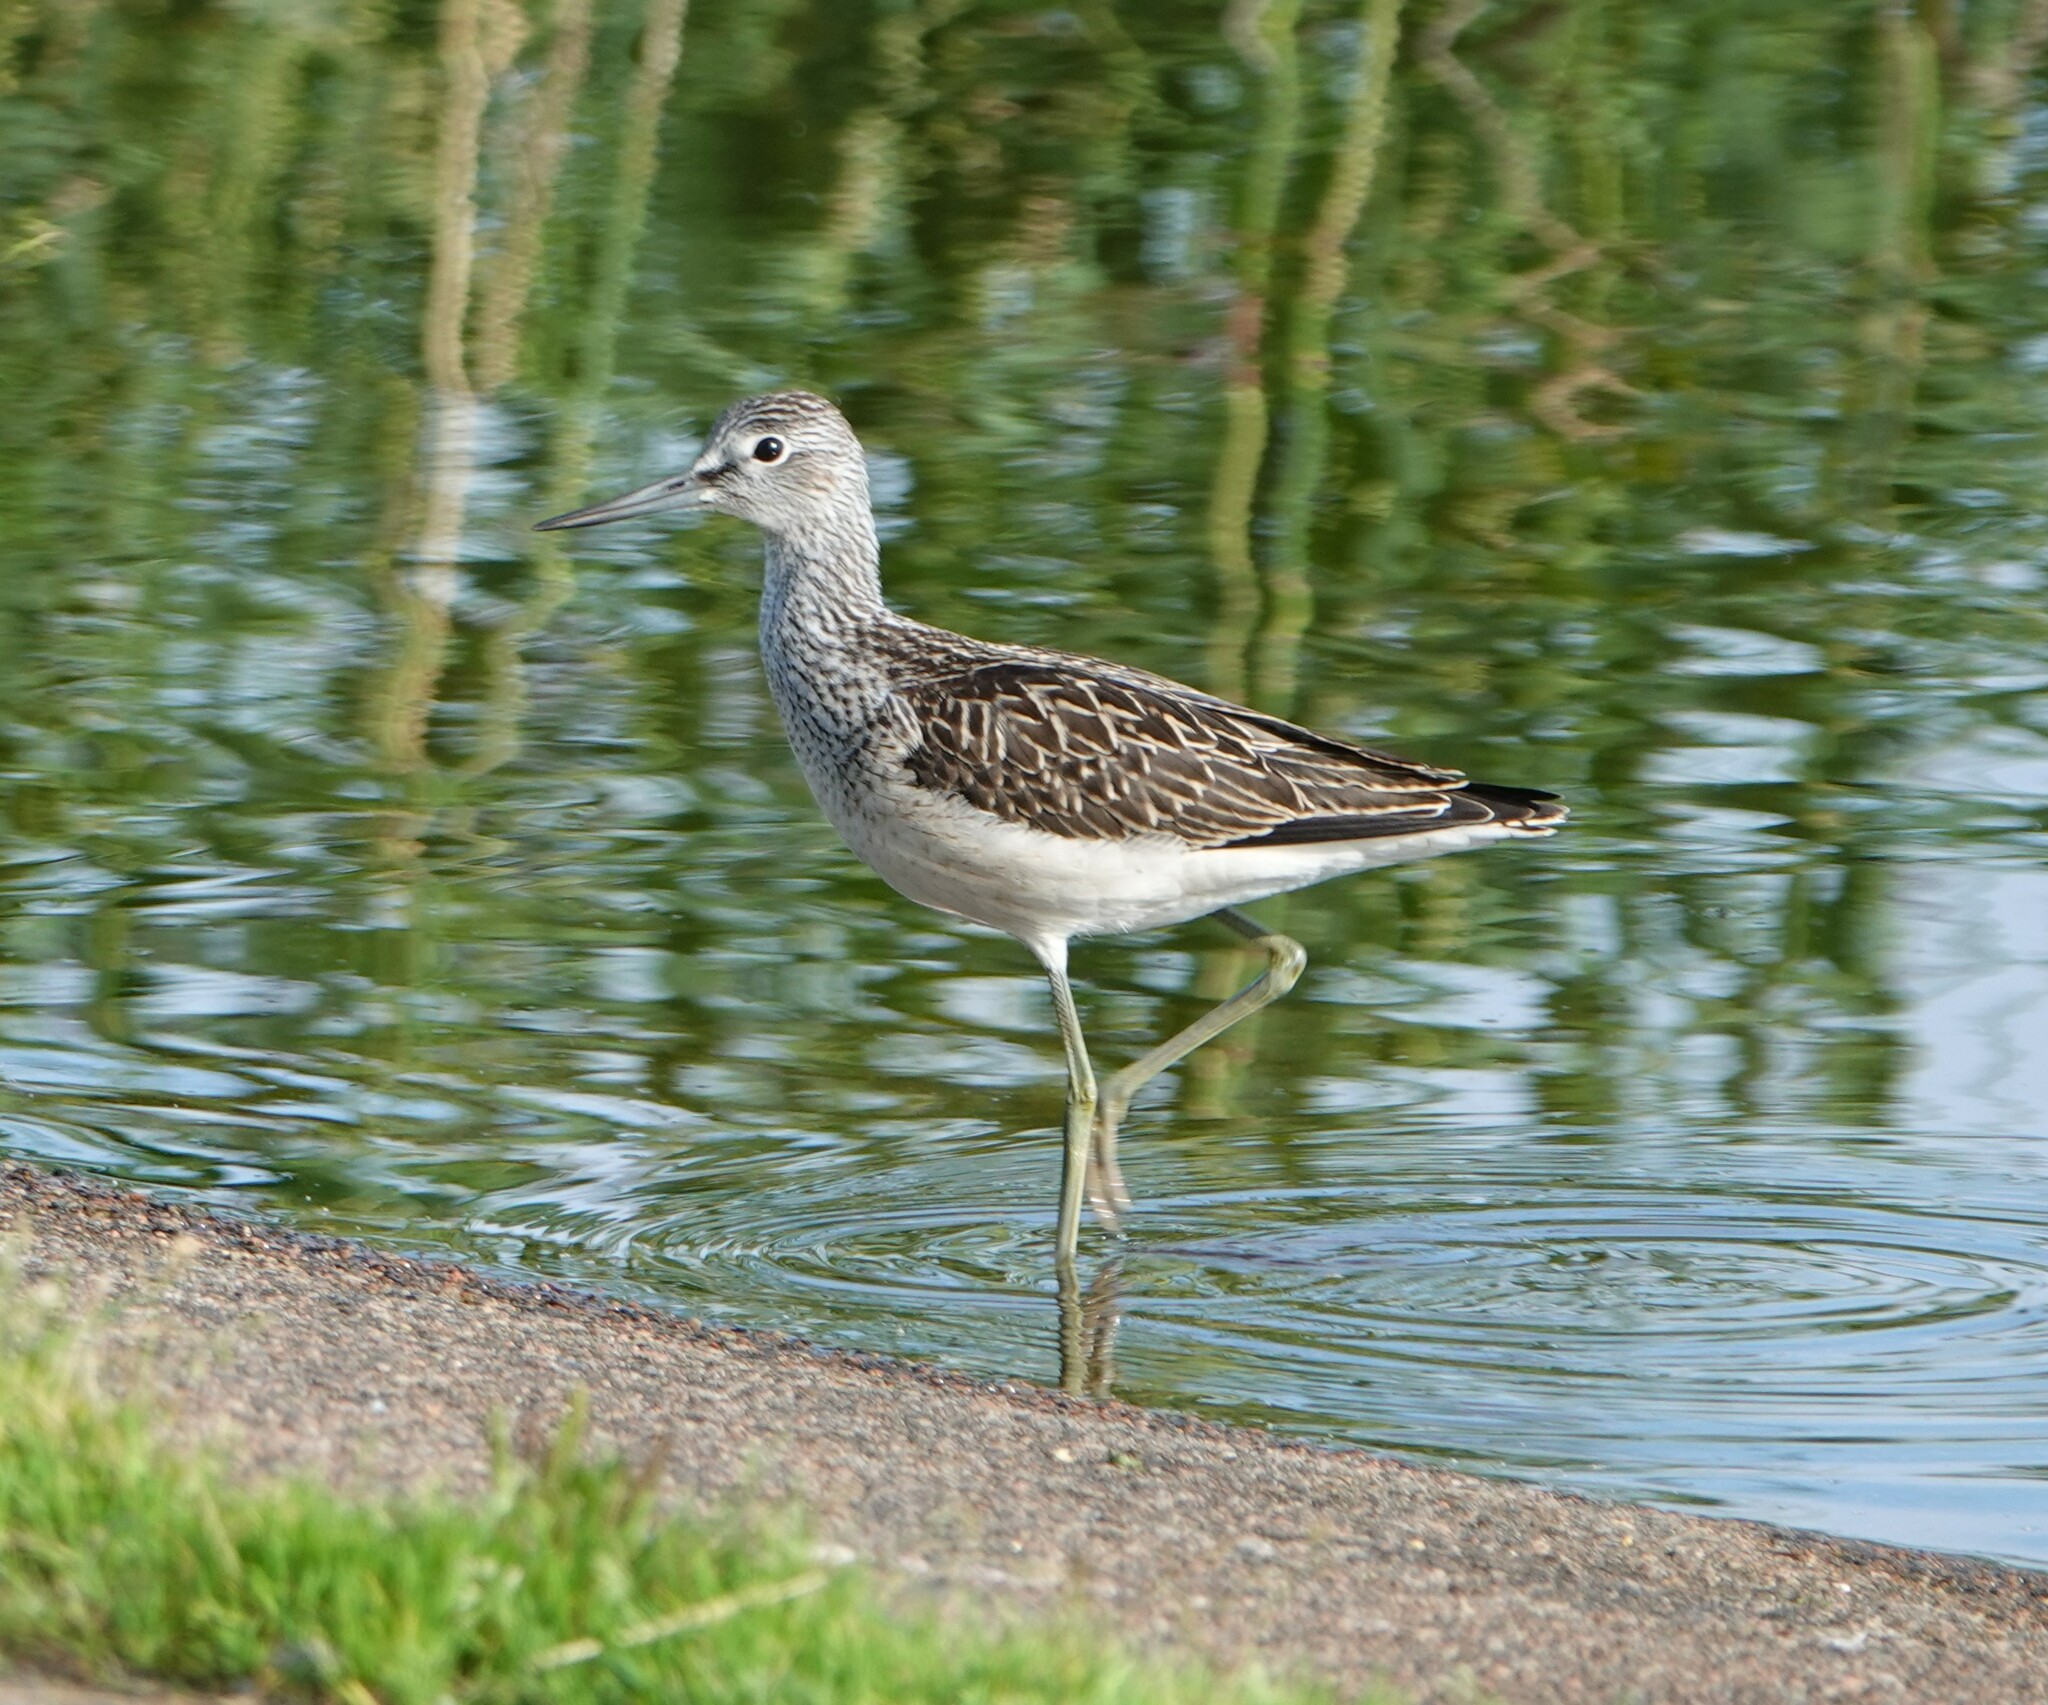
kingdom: Animalia
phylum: Chordata
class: Aves
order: Charadriiformes
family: Scolopacidae
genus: Tringa
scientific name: Tringa nebularia
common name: Common greenshank
